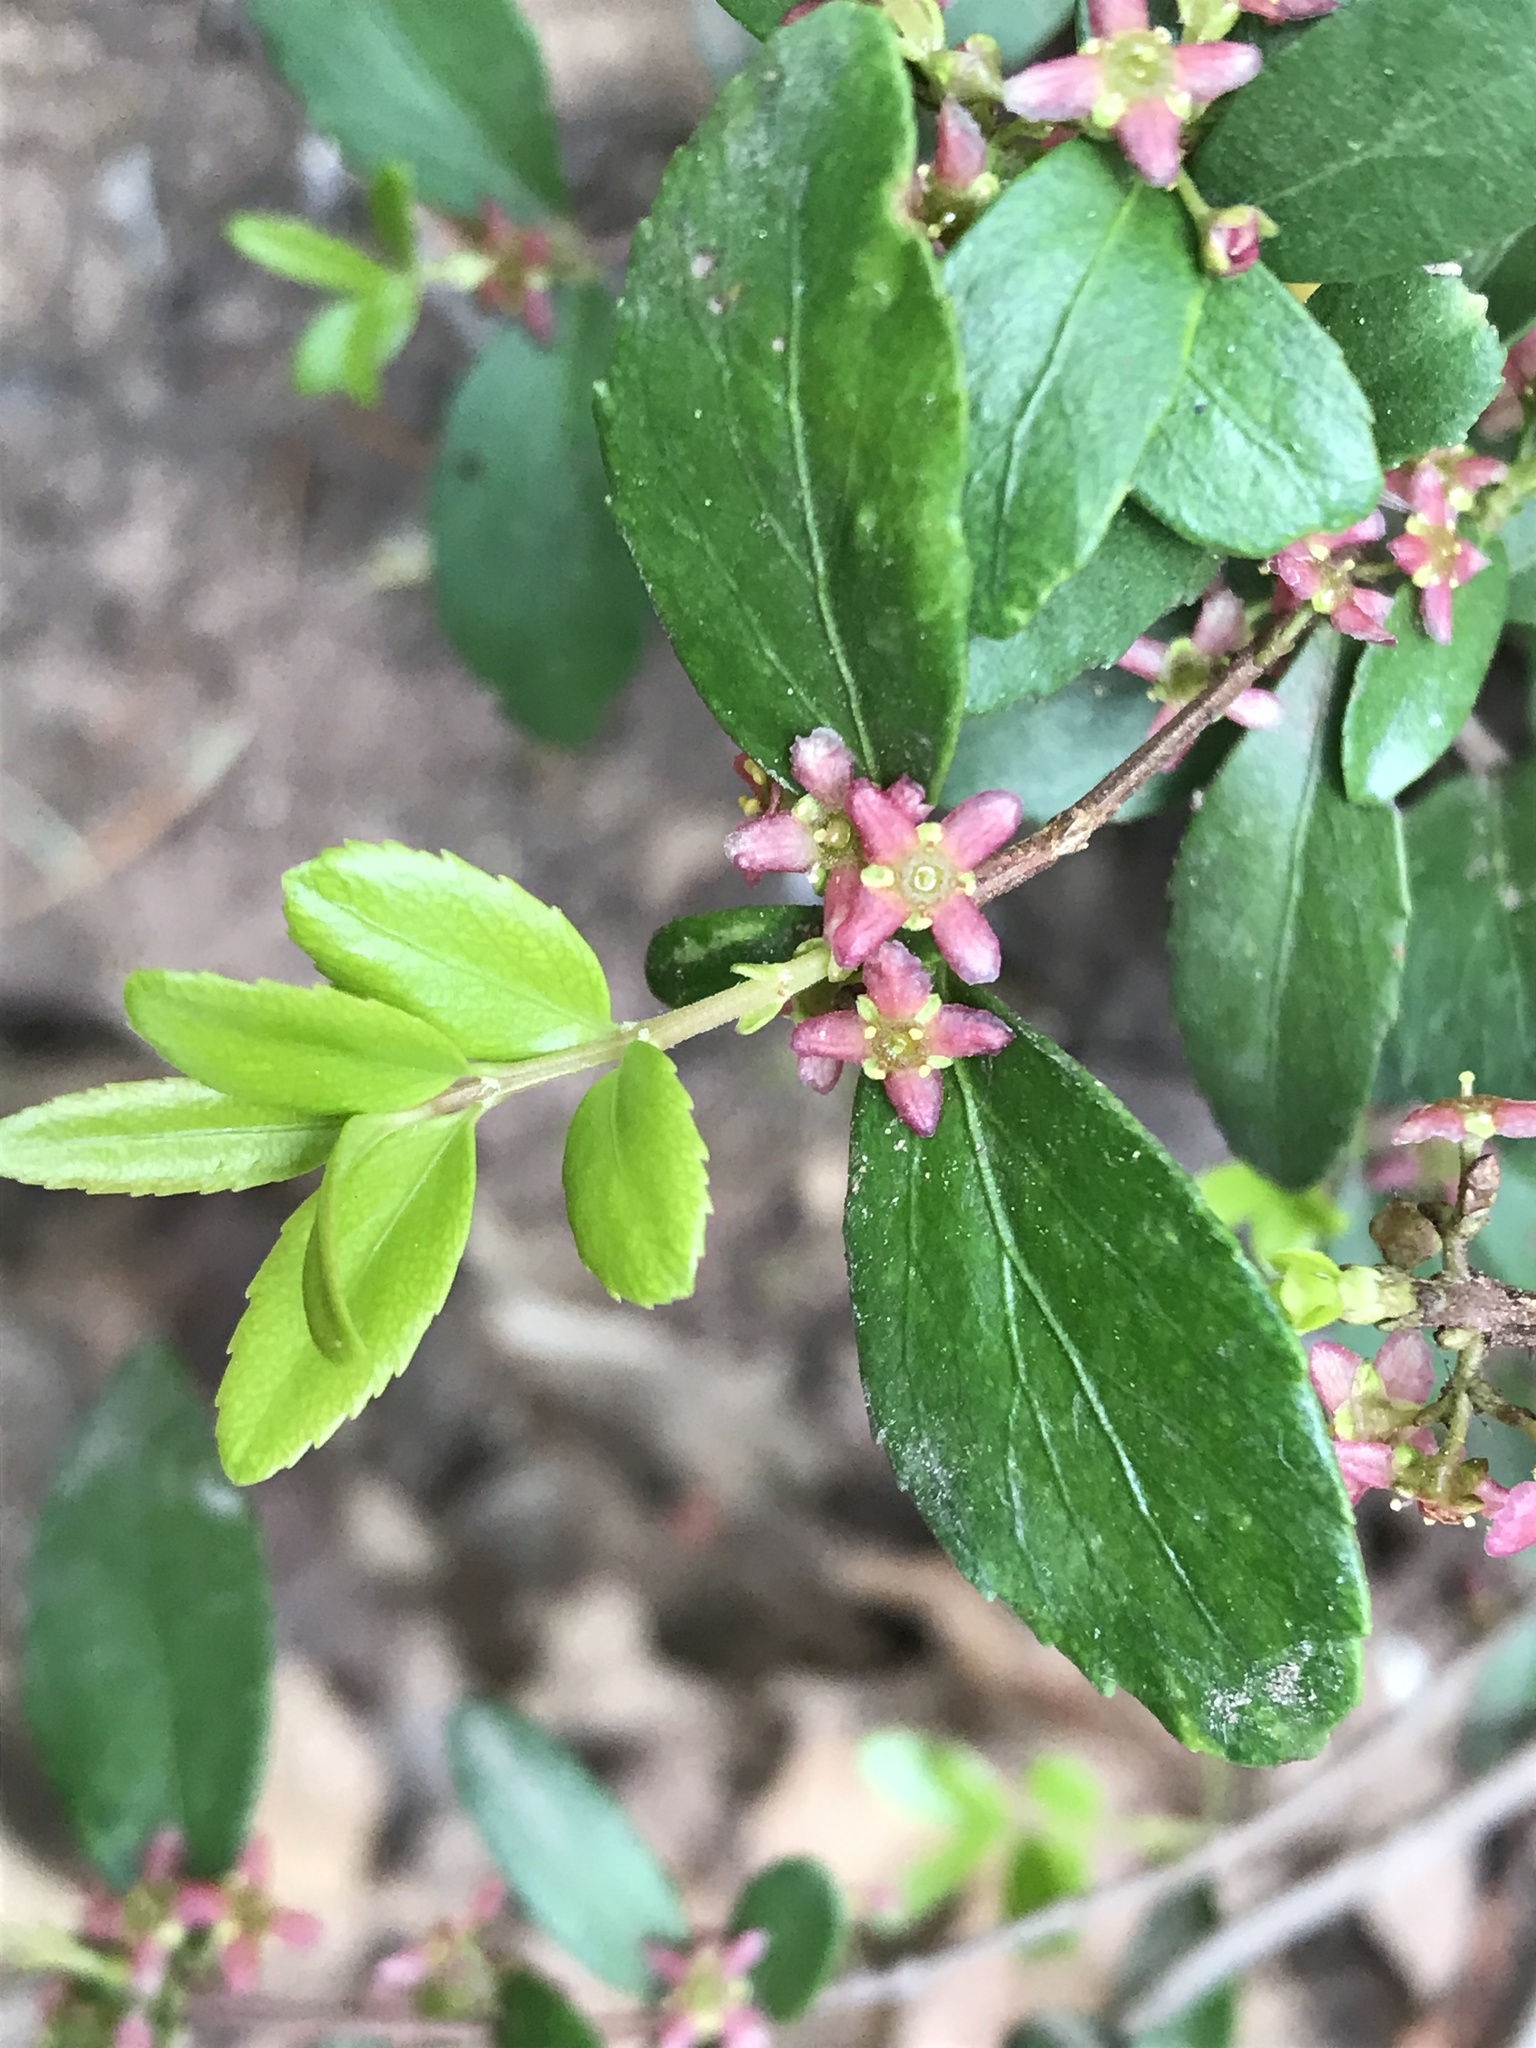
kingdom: Plantae
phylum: Tracheophyta
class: Magnoliopsida
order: Celastrales
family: Celastraceae
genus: Paxistima
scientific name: Paxistima myrsinites
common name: Mountain-lover
